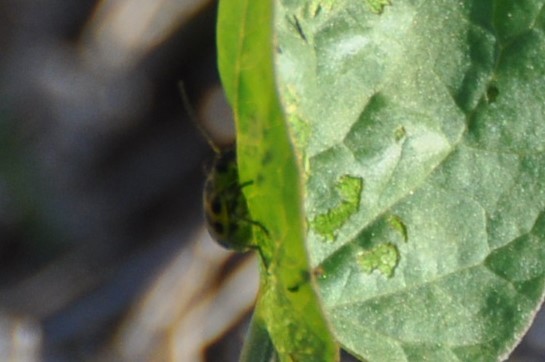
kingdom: Animalia
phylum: Arthropoda
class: Insecta
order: Coleoptera
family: Chrysomelidae
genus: Diabrotica
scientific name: Diabrotica undecimpunctata
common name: Spotted cucumber beetle
